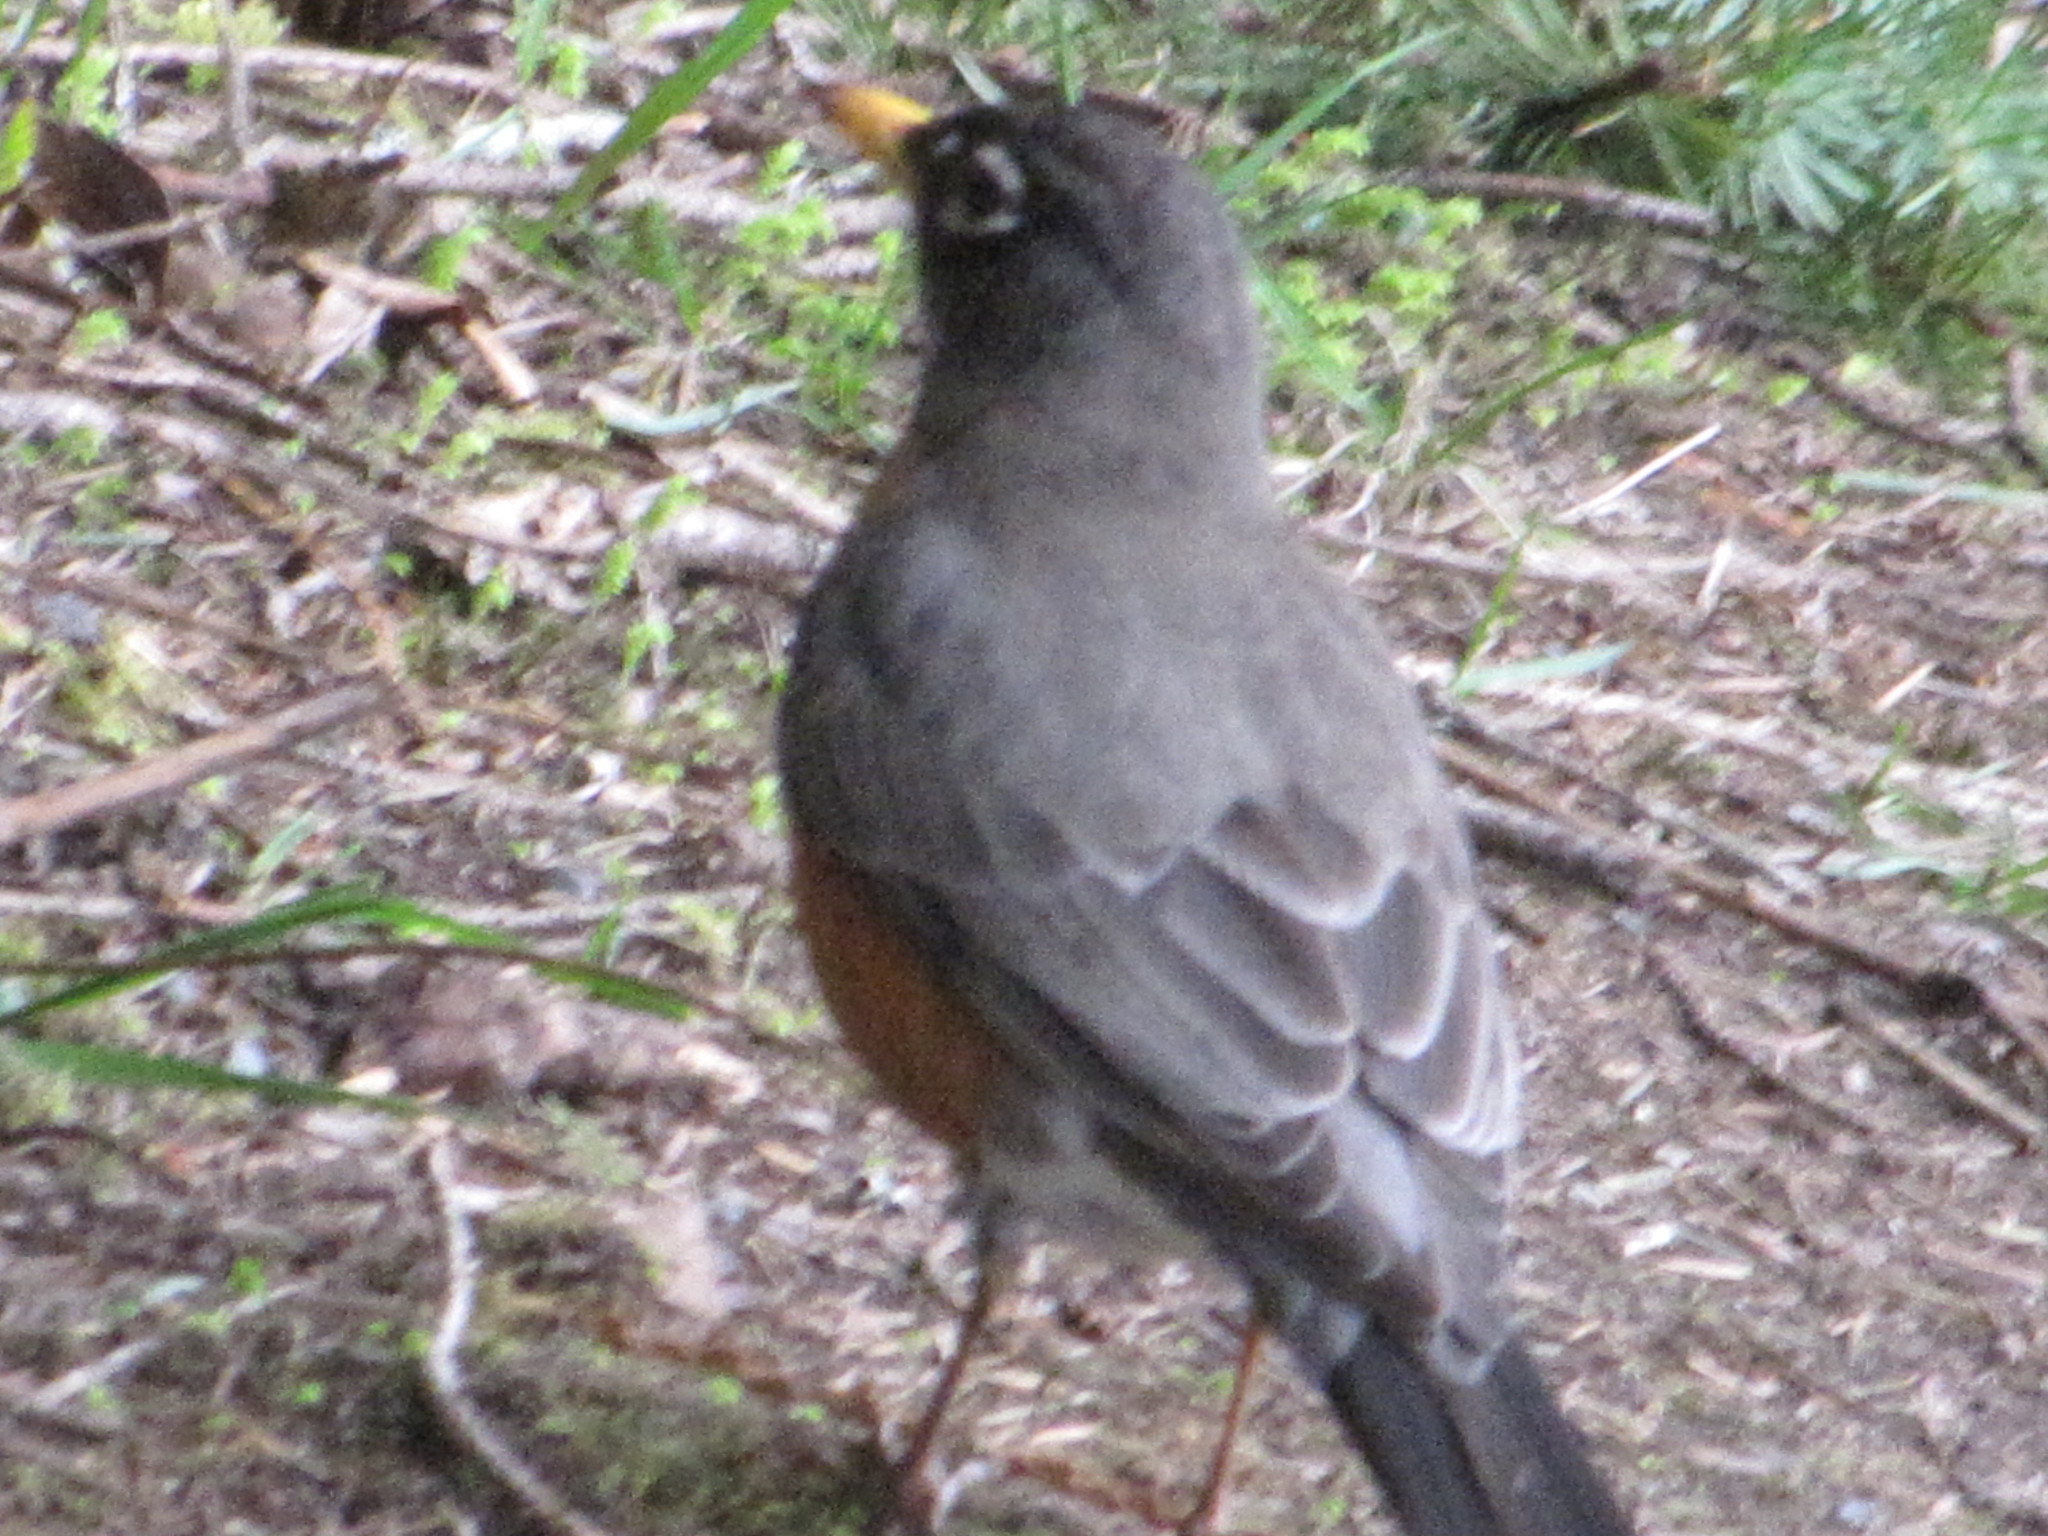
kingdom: Animalia
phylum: Chordata
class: Aves
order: Passeriformes
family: Turdidae
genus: Turdus
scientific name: Turdus migratorius
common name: American robin
